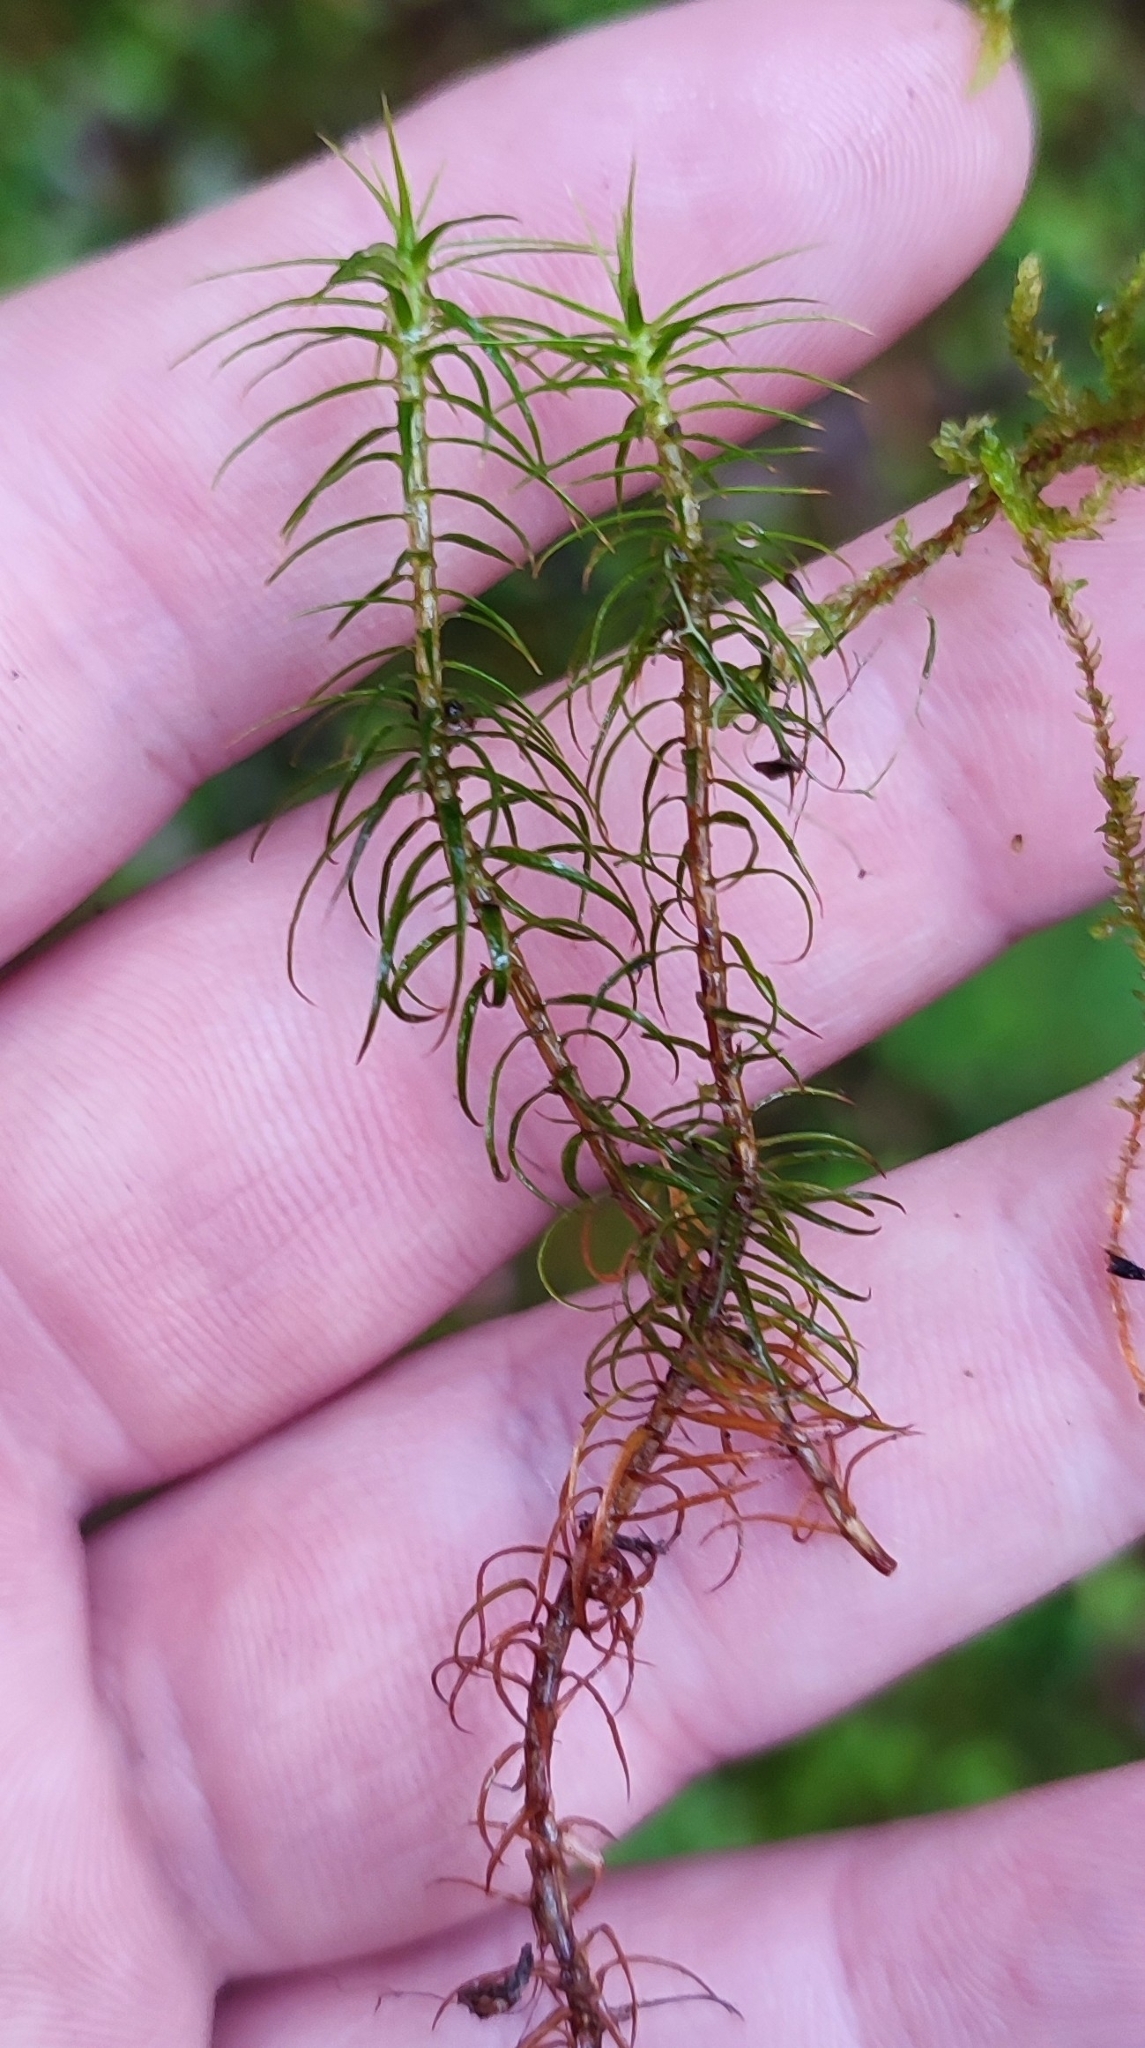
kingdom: Plantae
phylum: Bryophyta
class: Polytrichopsida
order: Polytrichales
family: Polytrichaceae
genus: Polytrichum
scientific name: Polytrichum commune
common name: Common haircap
